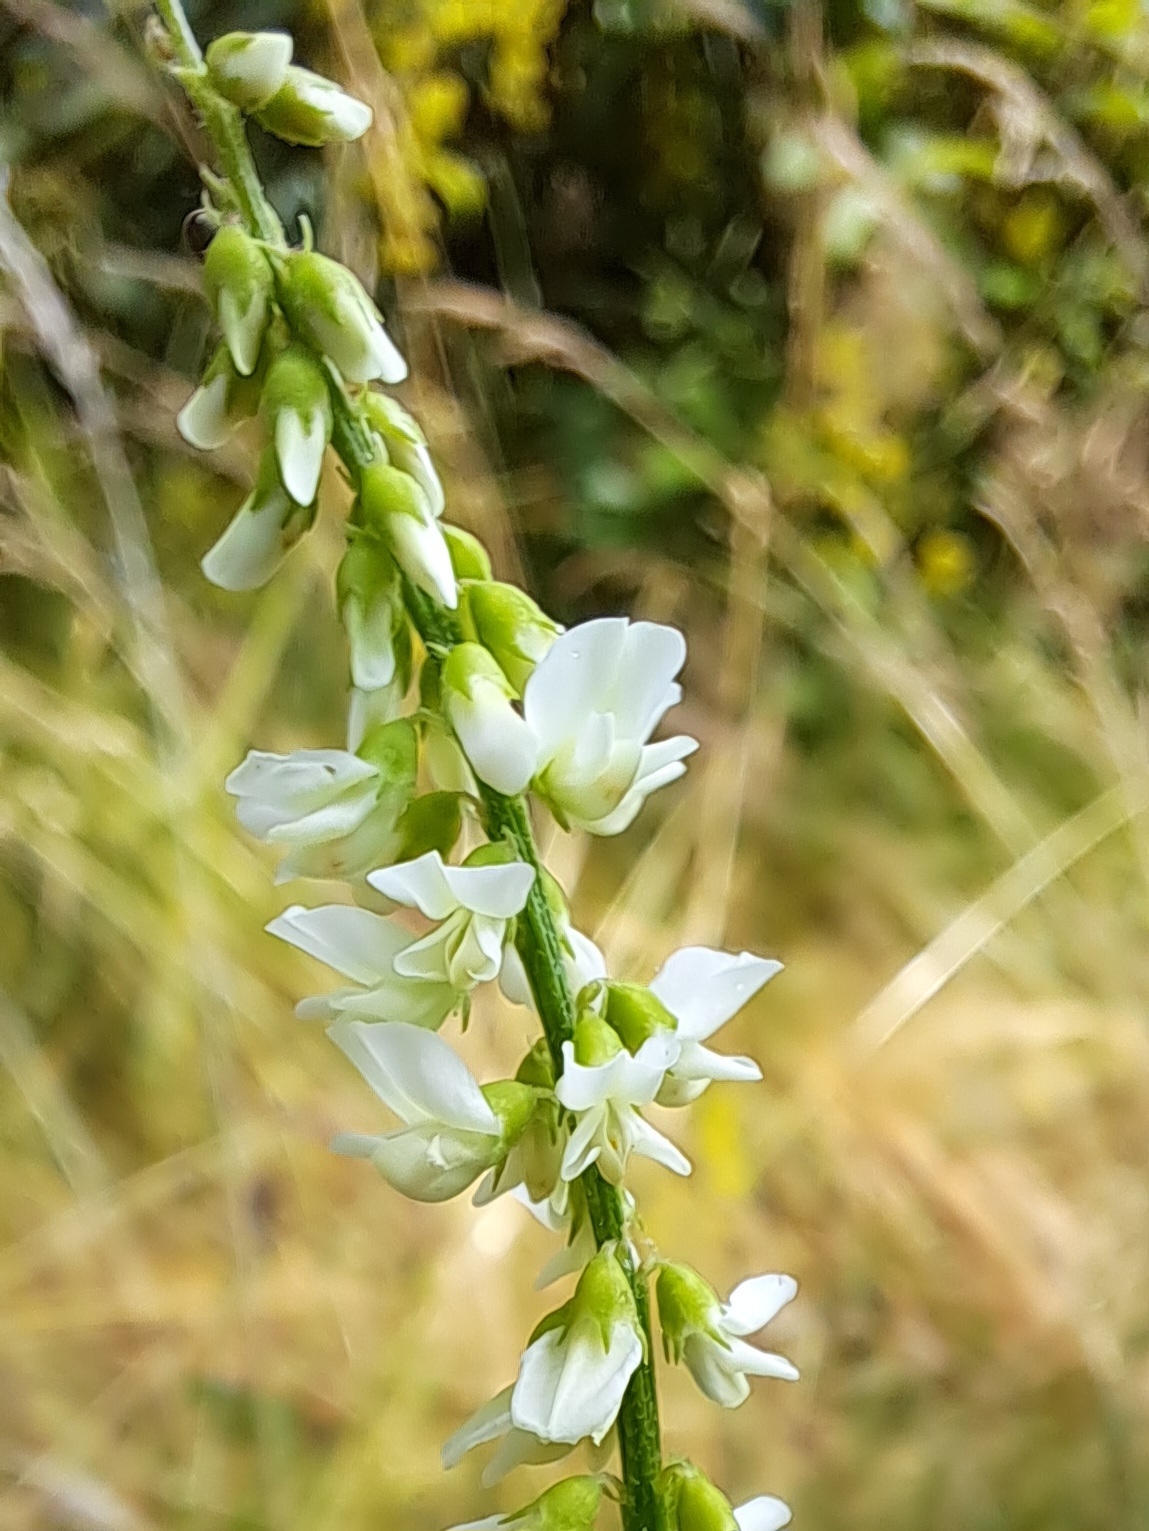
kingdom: Plantae
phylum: Tracheophyta
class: Magnoliopsida
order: Fabales
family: Fabaceae
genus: Melilotus
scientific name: Melilotus albus
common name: White melilot
